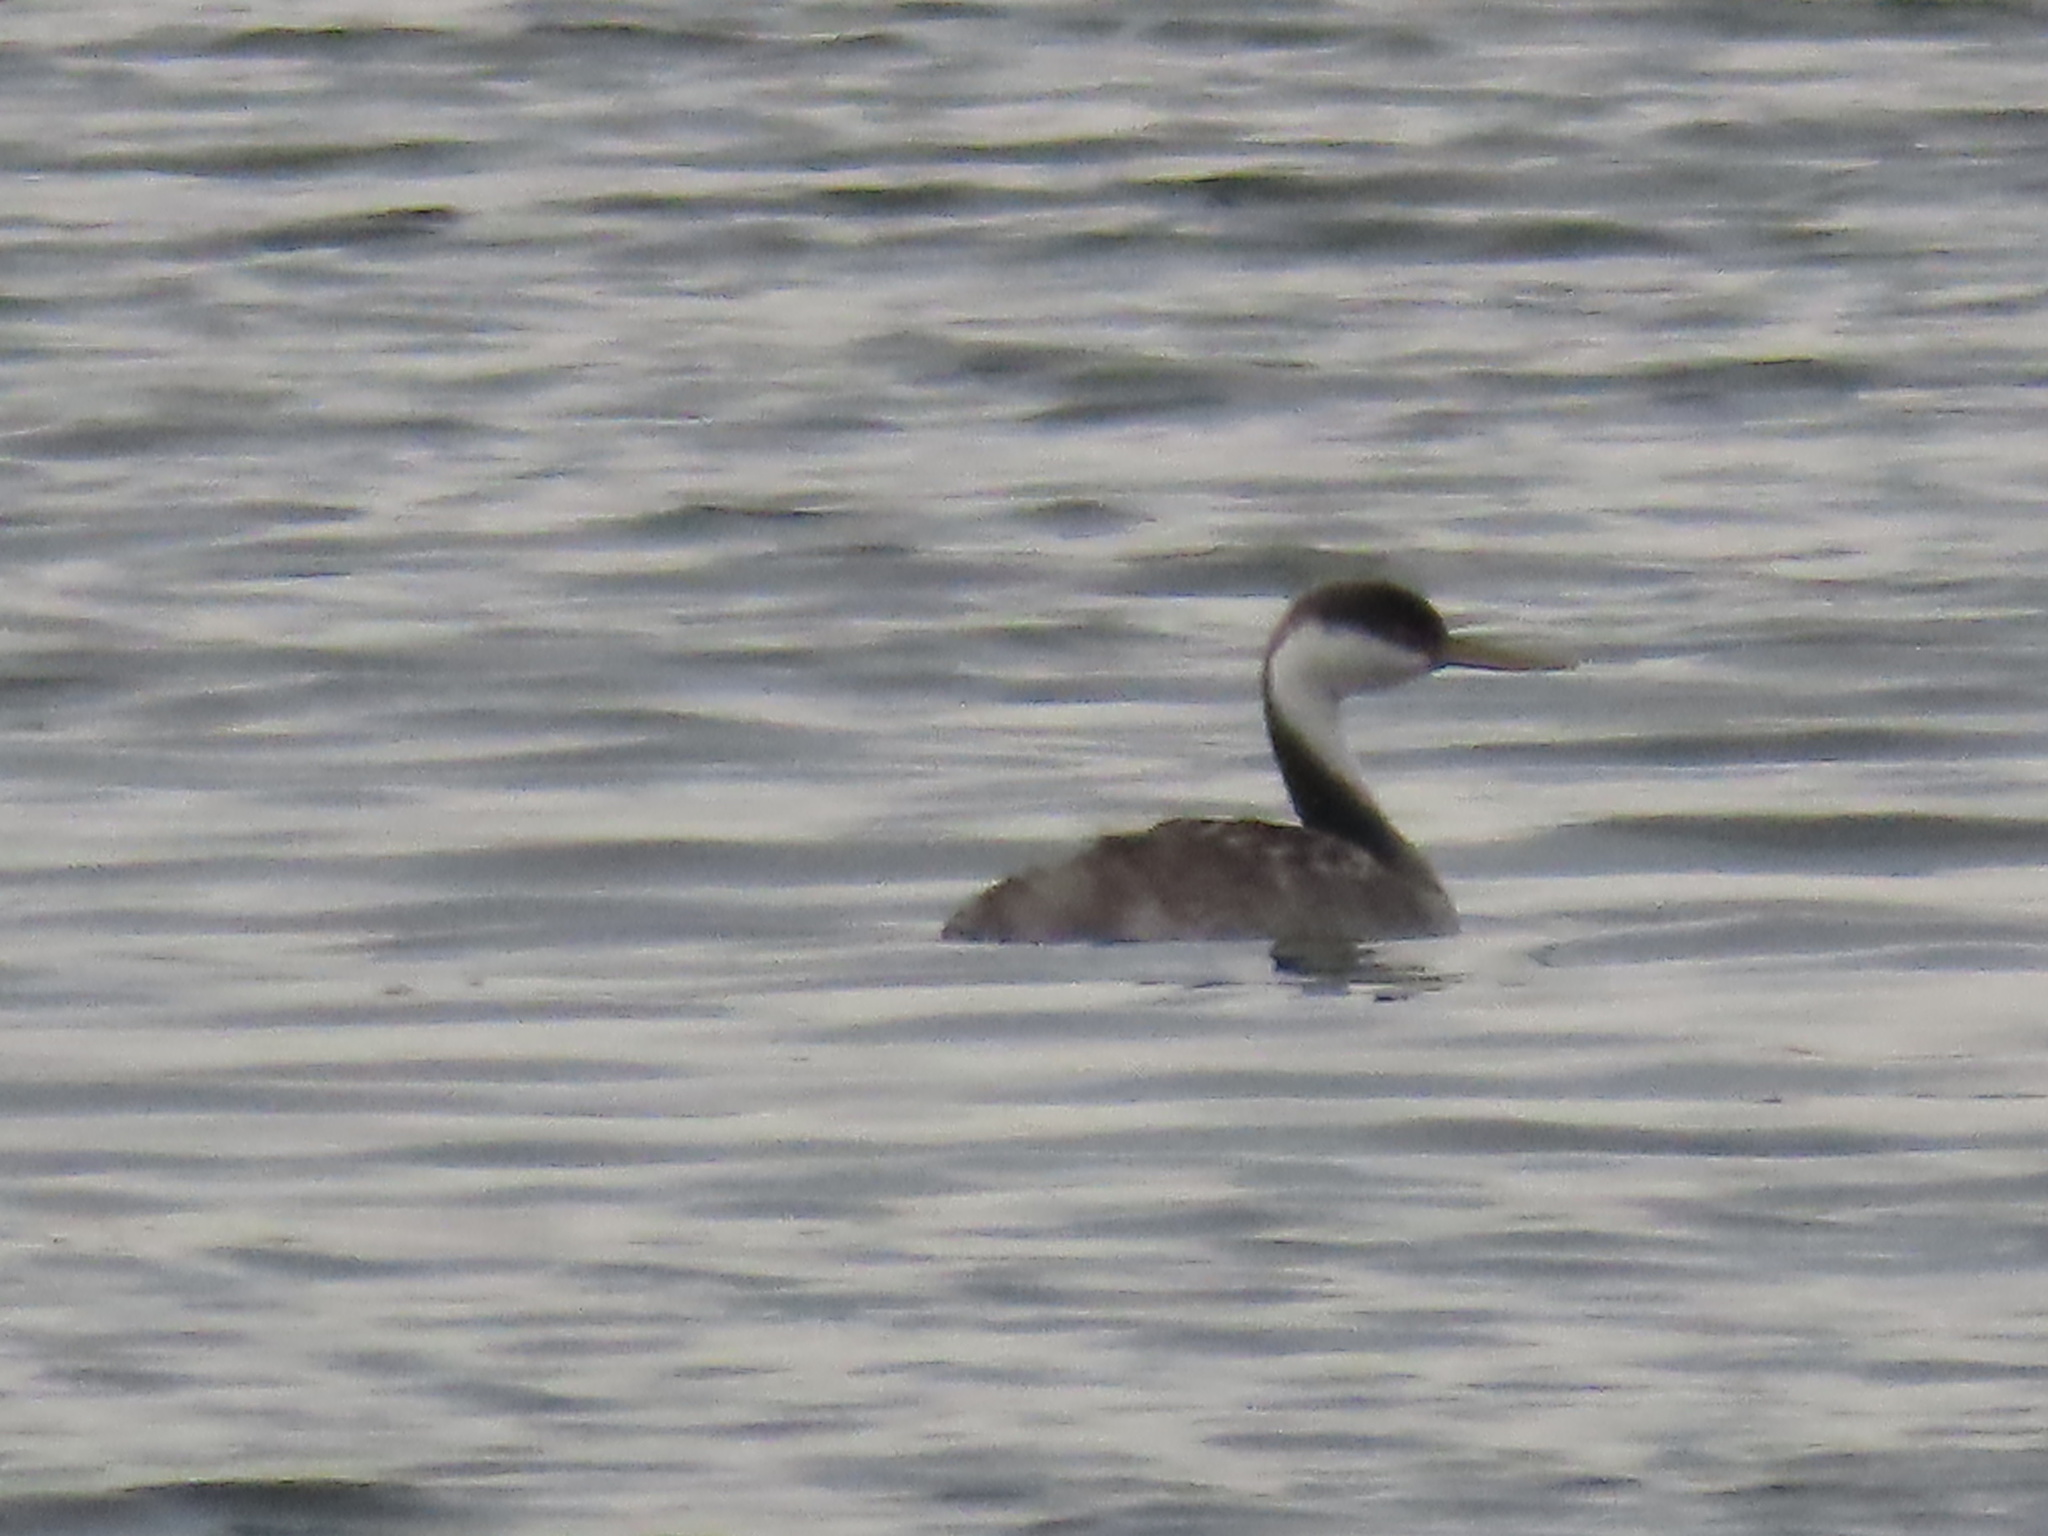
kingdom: Animalia
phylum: Chordata
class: Aves
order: Podicipediformes
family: Podicipedidae
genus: Aechmophorus
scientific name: Aechmophorus occidentalis
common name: Western grebe
